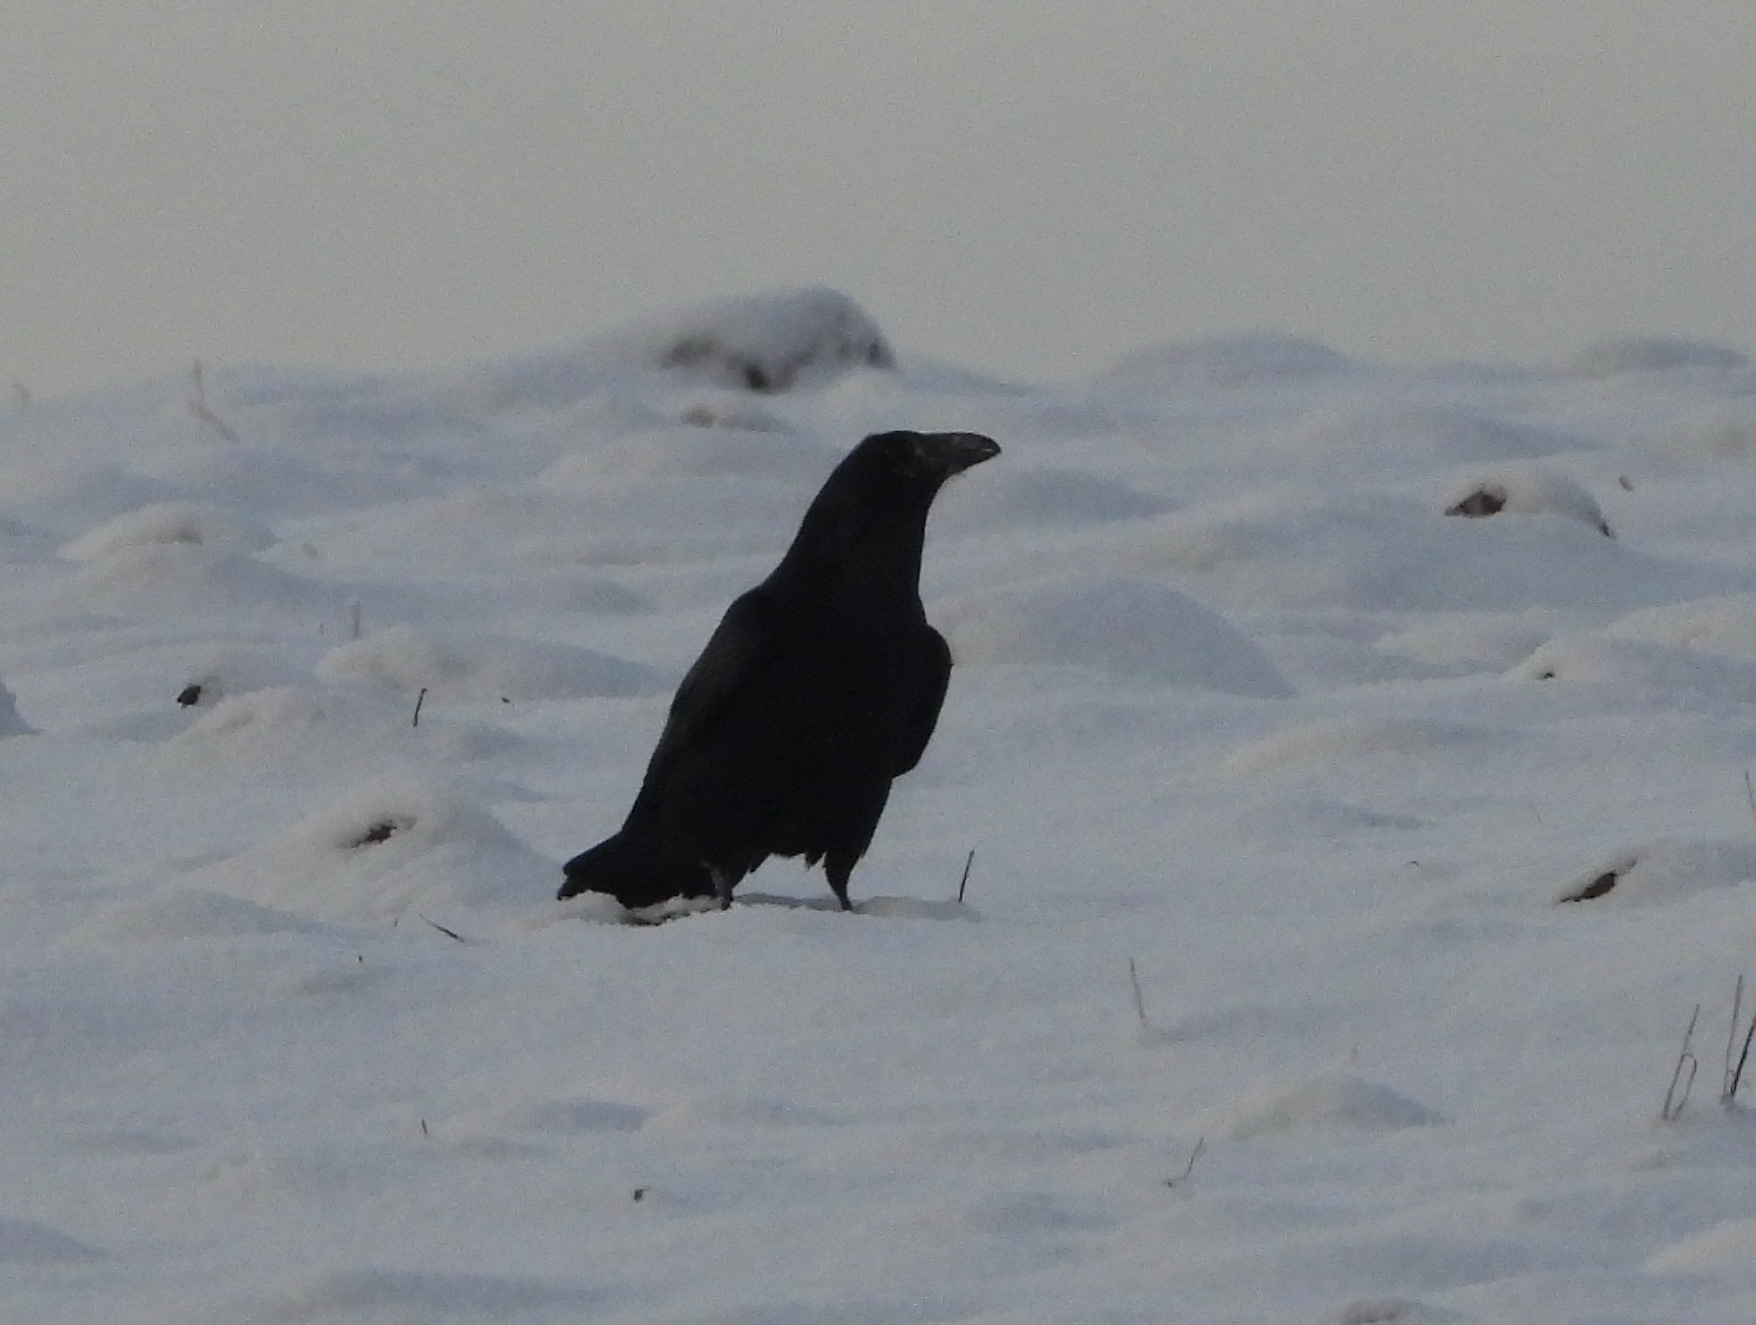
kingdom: Animalia
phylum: Chordata
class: Aves
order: Passeriformes
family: Corvidae
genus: Corvus
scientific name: Corvus corax
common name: Common raven
